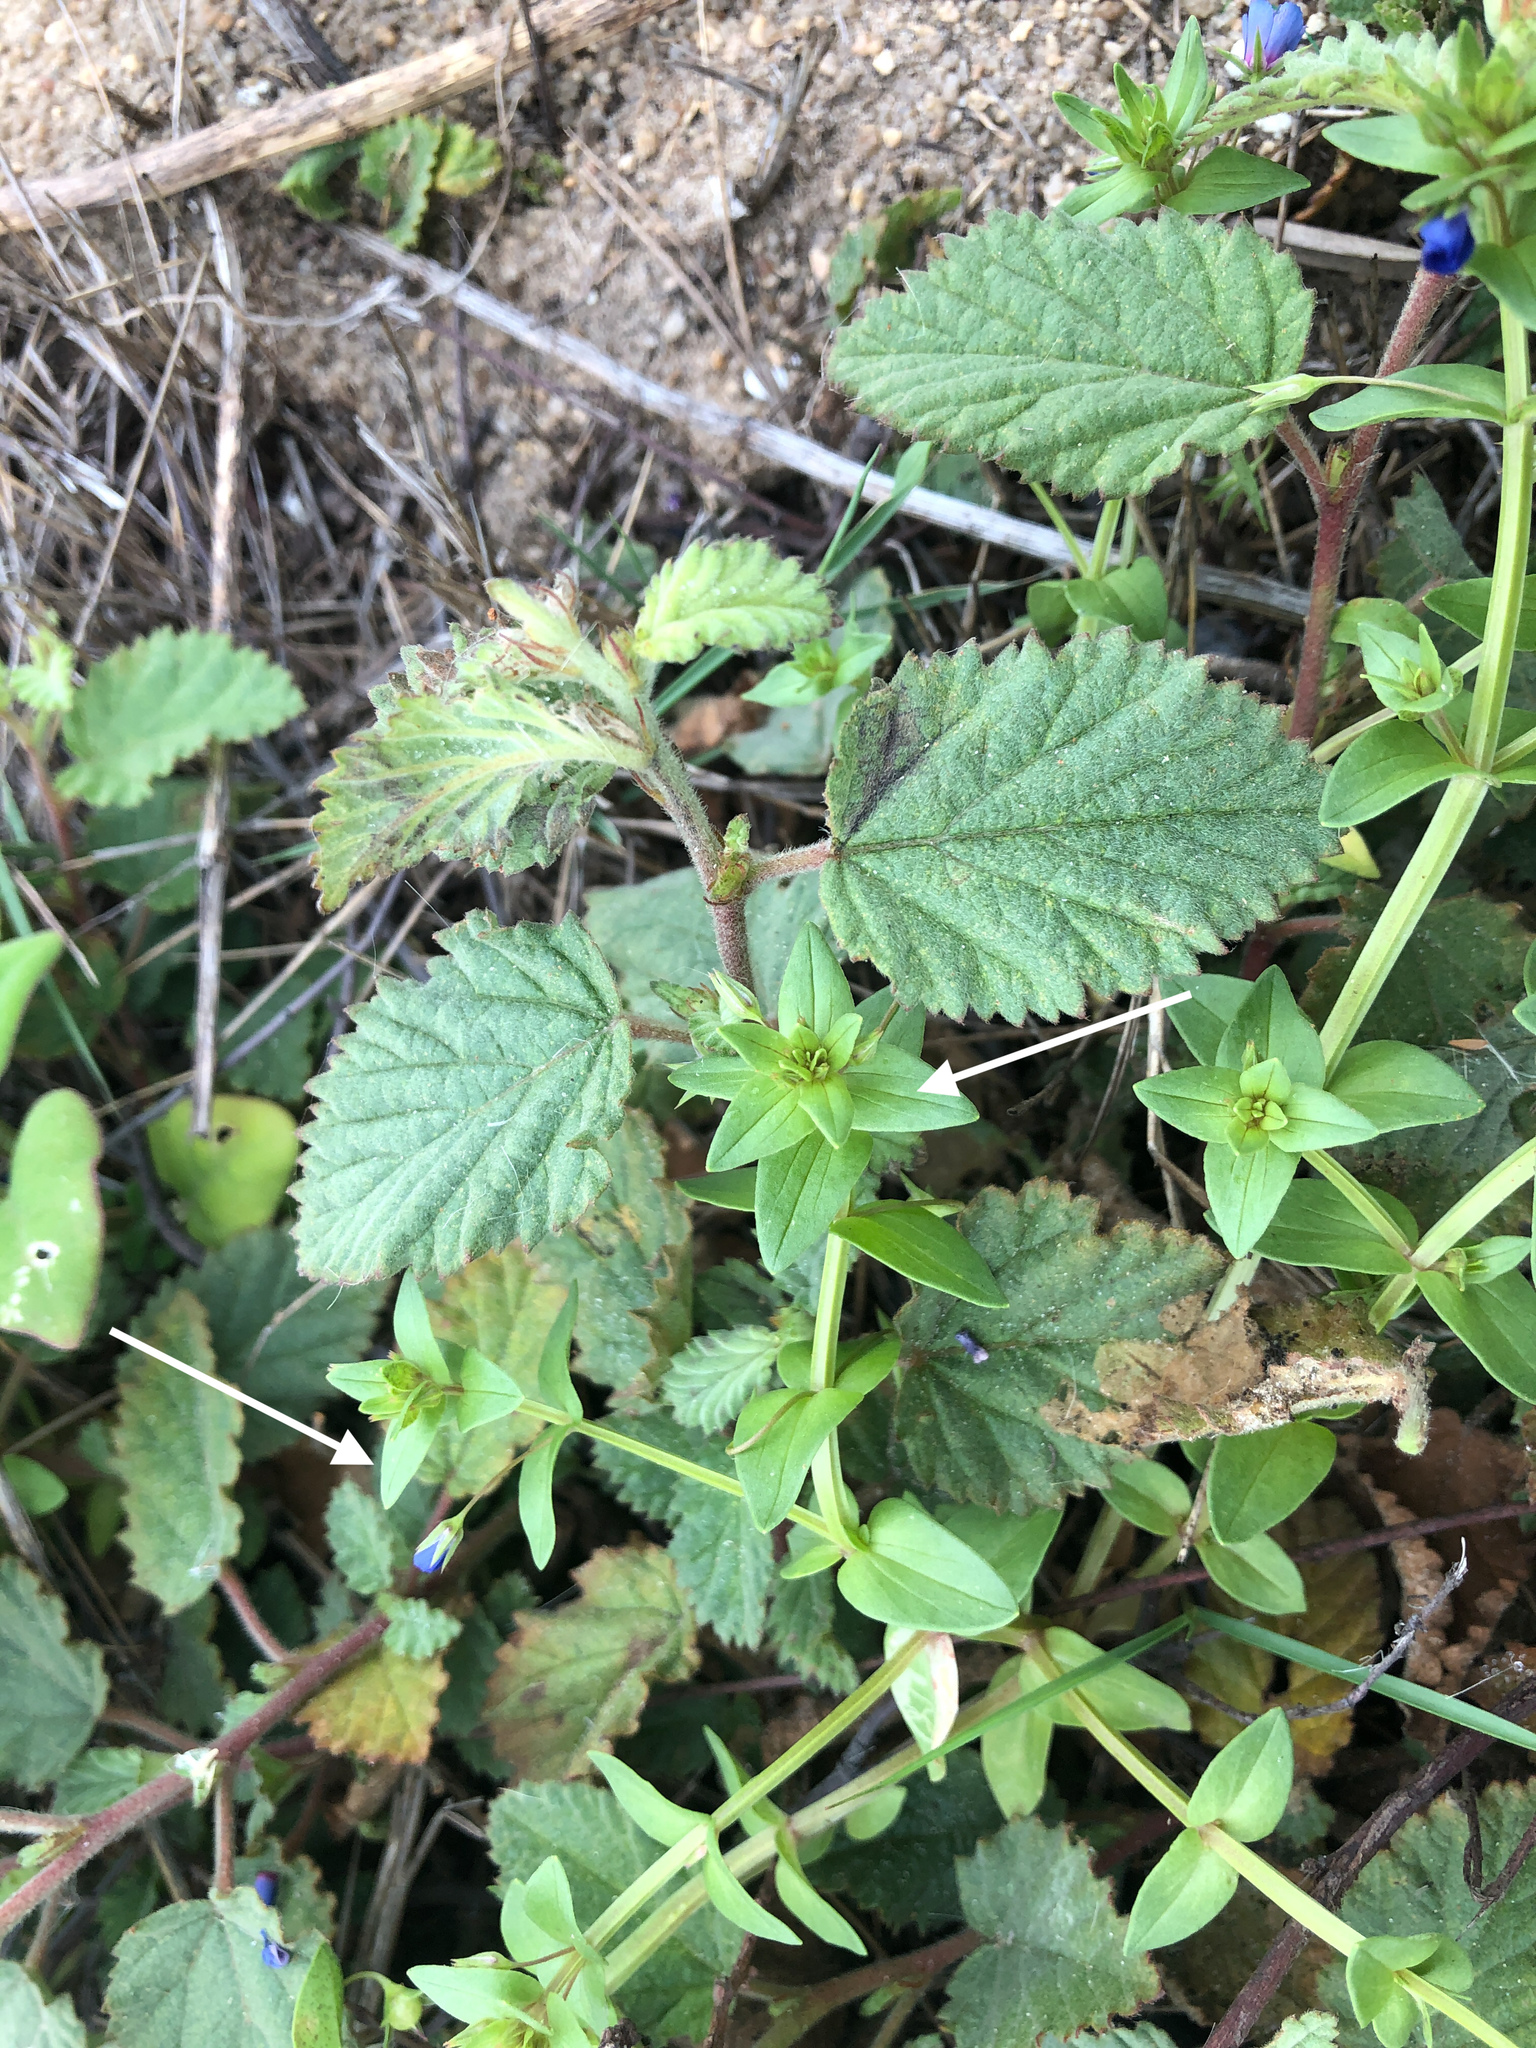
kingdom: Plantae
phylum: Tracheophyta
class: Magnoliopsida
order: Ericales
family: Primulaceae
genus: Lysimachia
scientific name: Lysimachia loeflingii
